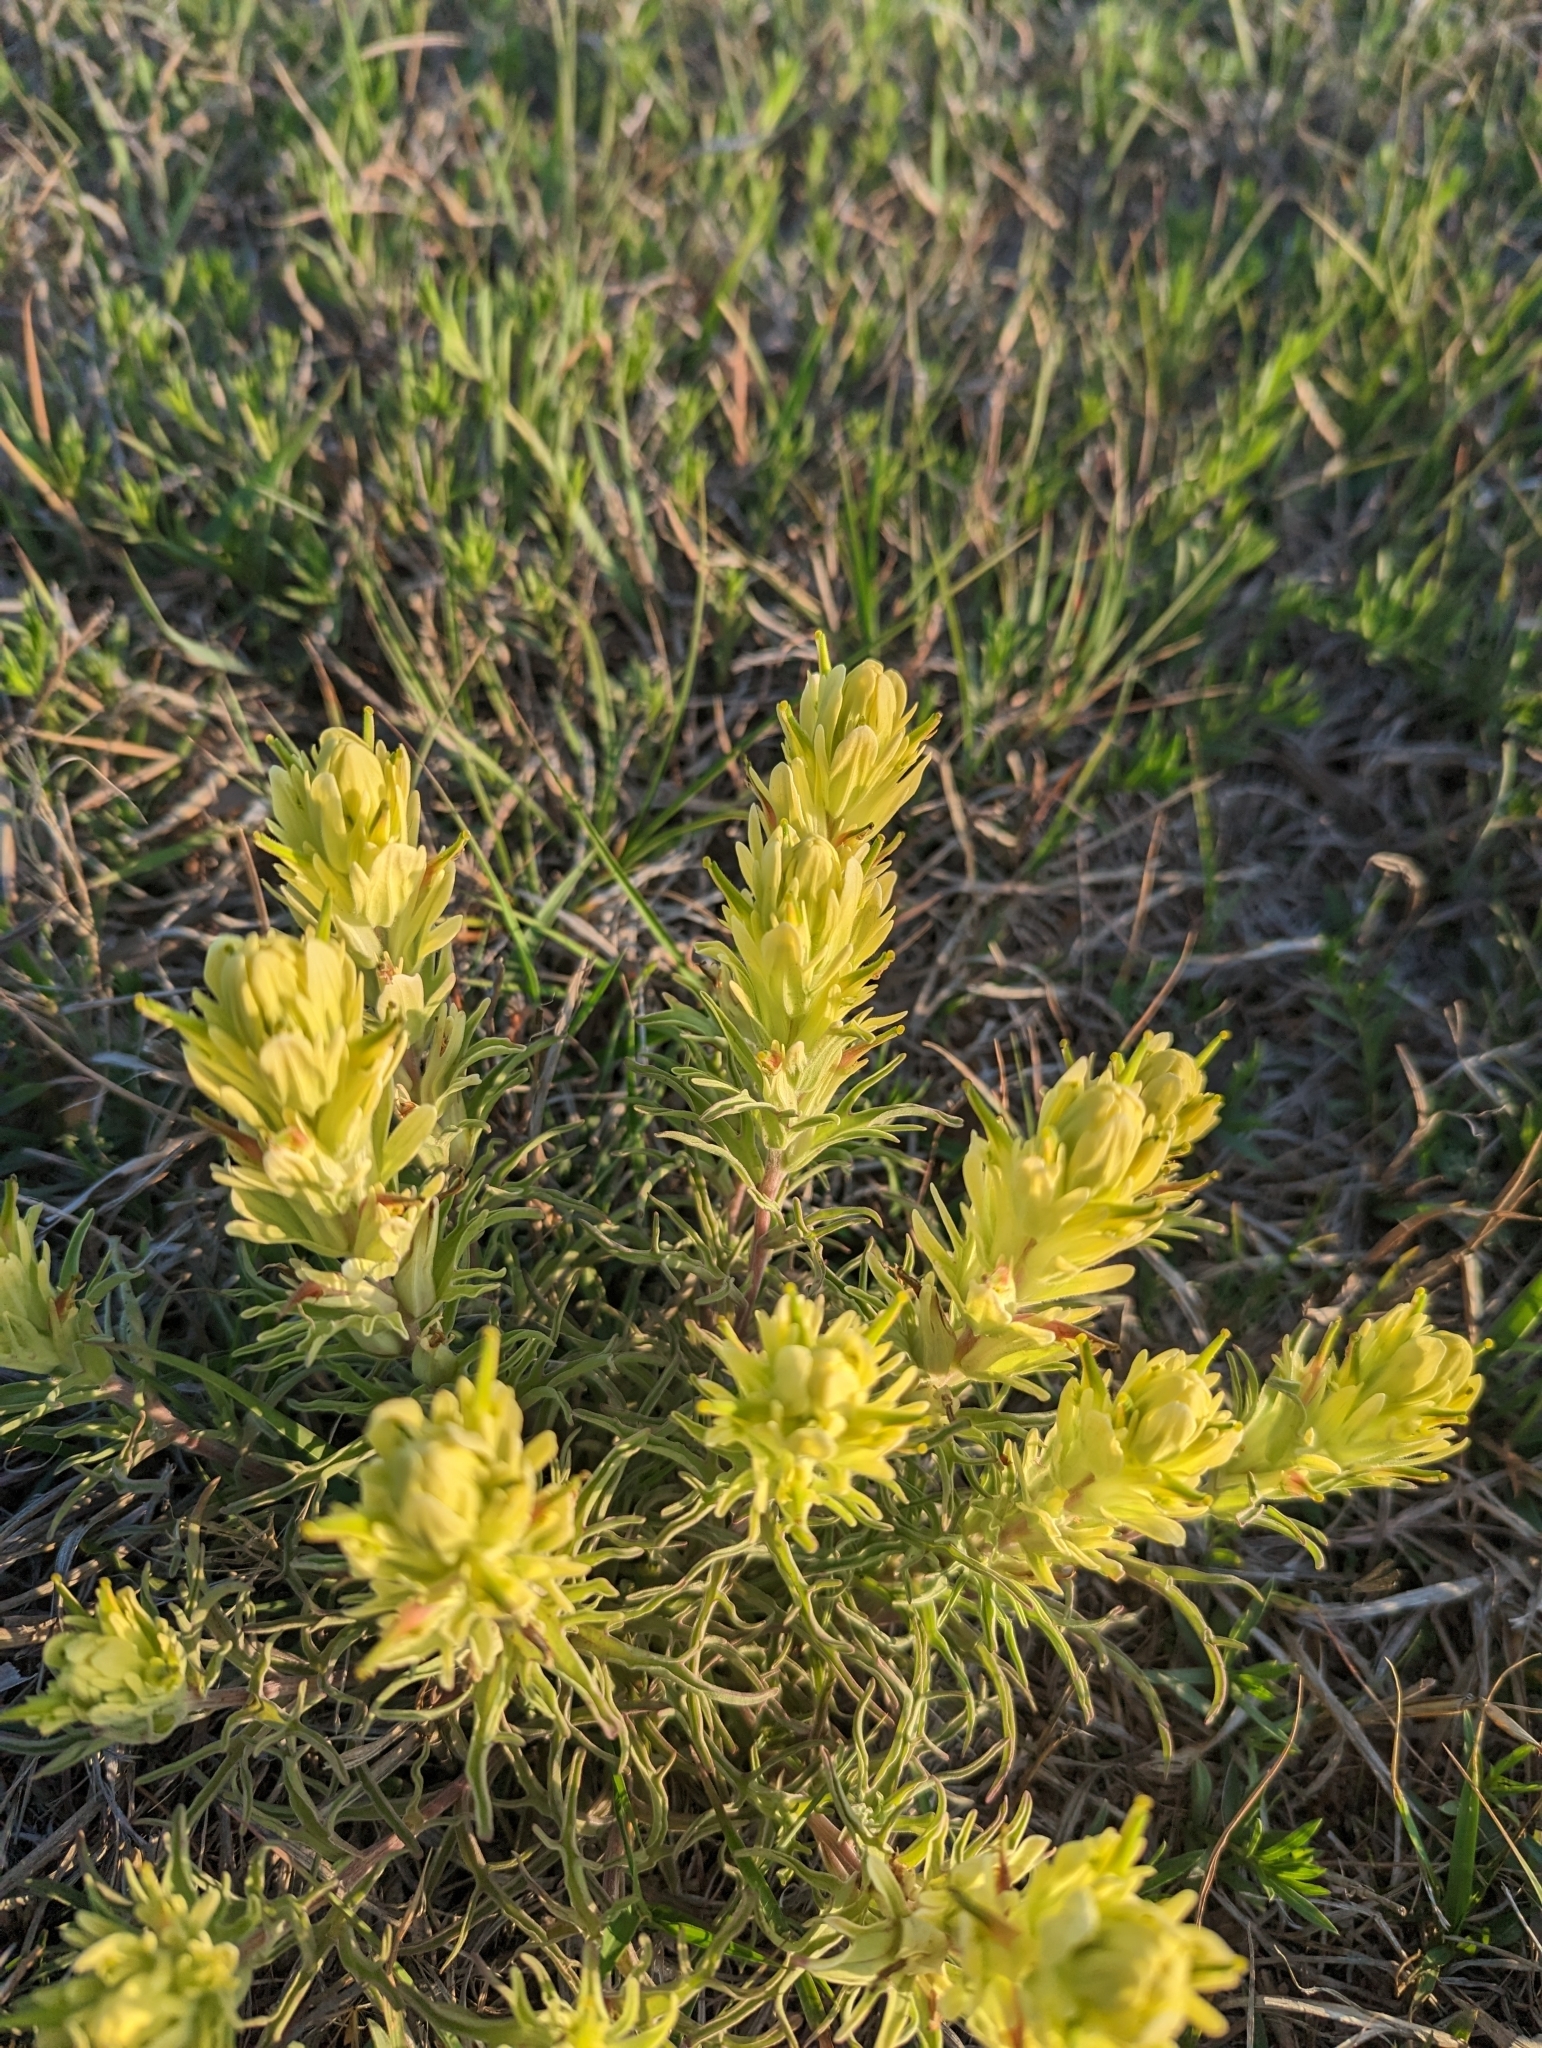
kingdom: Plantae
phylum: Tracheophyta
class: Magnoliopsida
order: Lamiales
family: Orobanchaceae
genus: Castilleja
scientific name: Castilleja citrina
